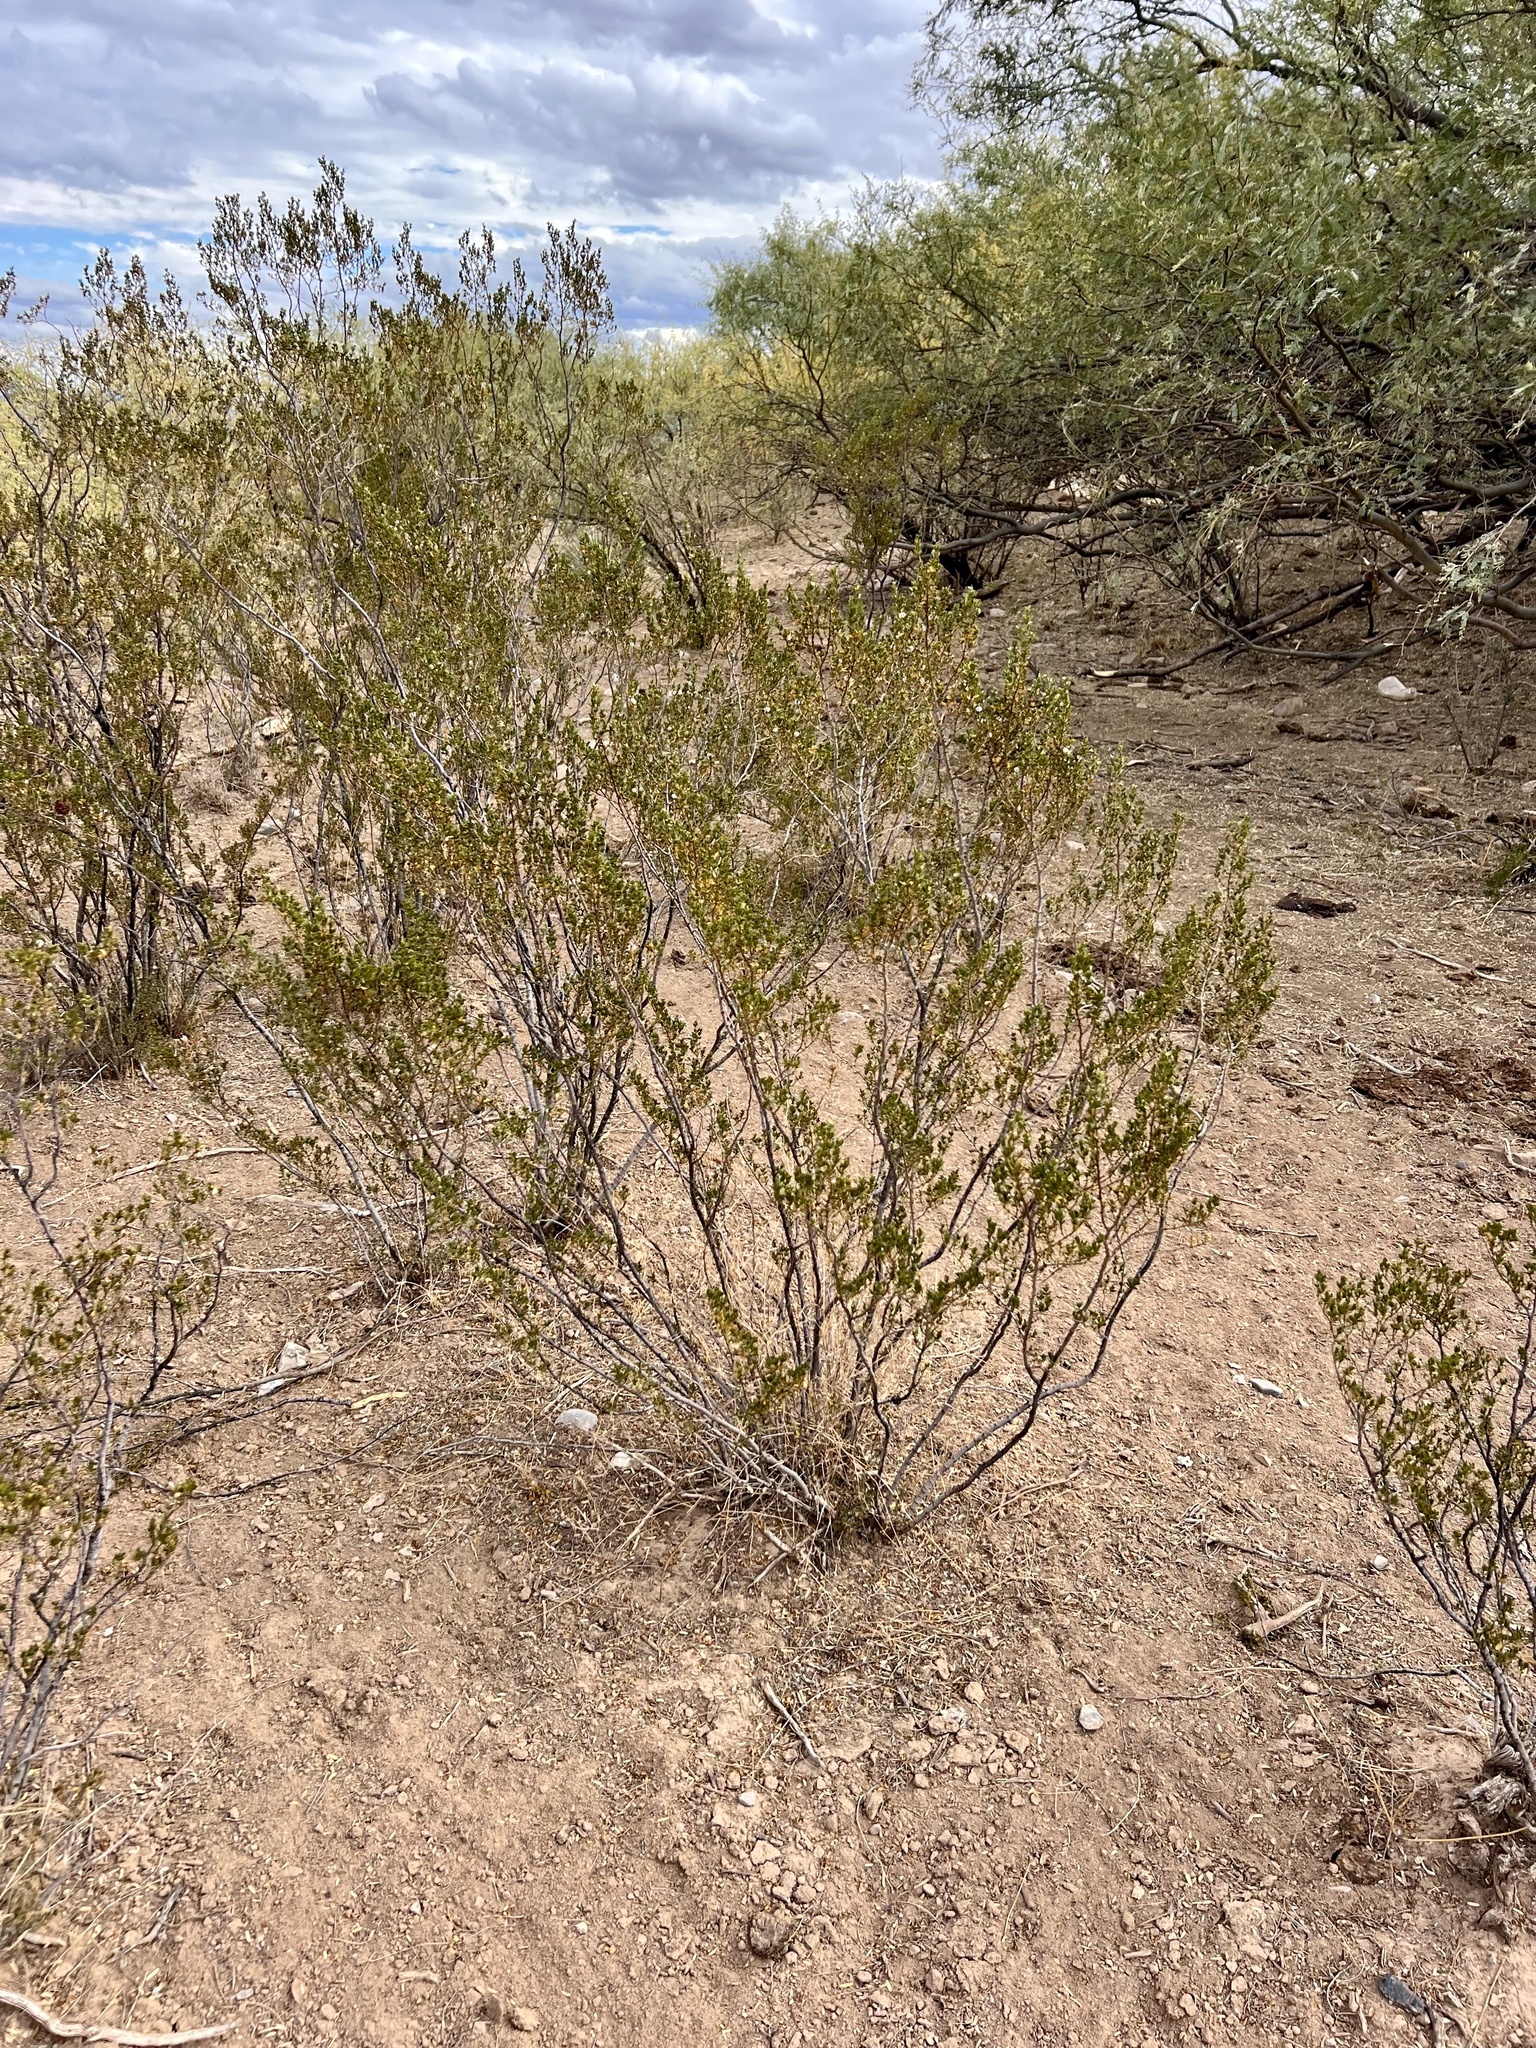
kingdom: Plantae
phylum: Tracheophyta
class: Magnoliopsida
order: Zygophyllales
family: Zygophyllaceae
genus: Larrea
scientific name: Larrea tridentata
